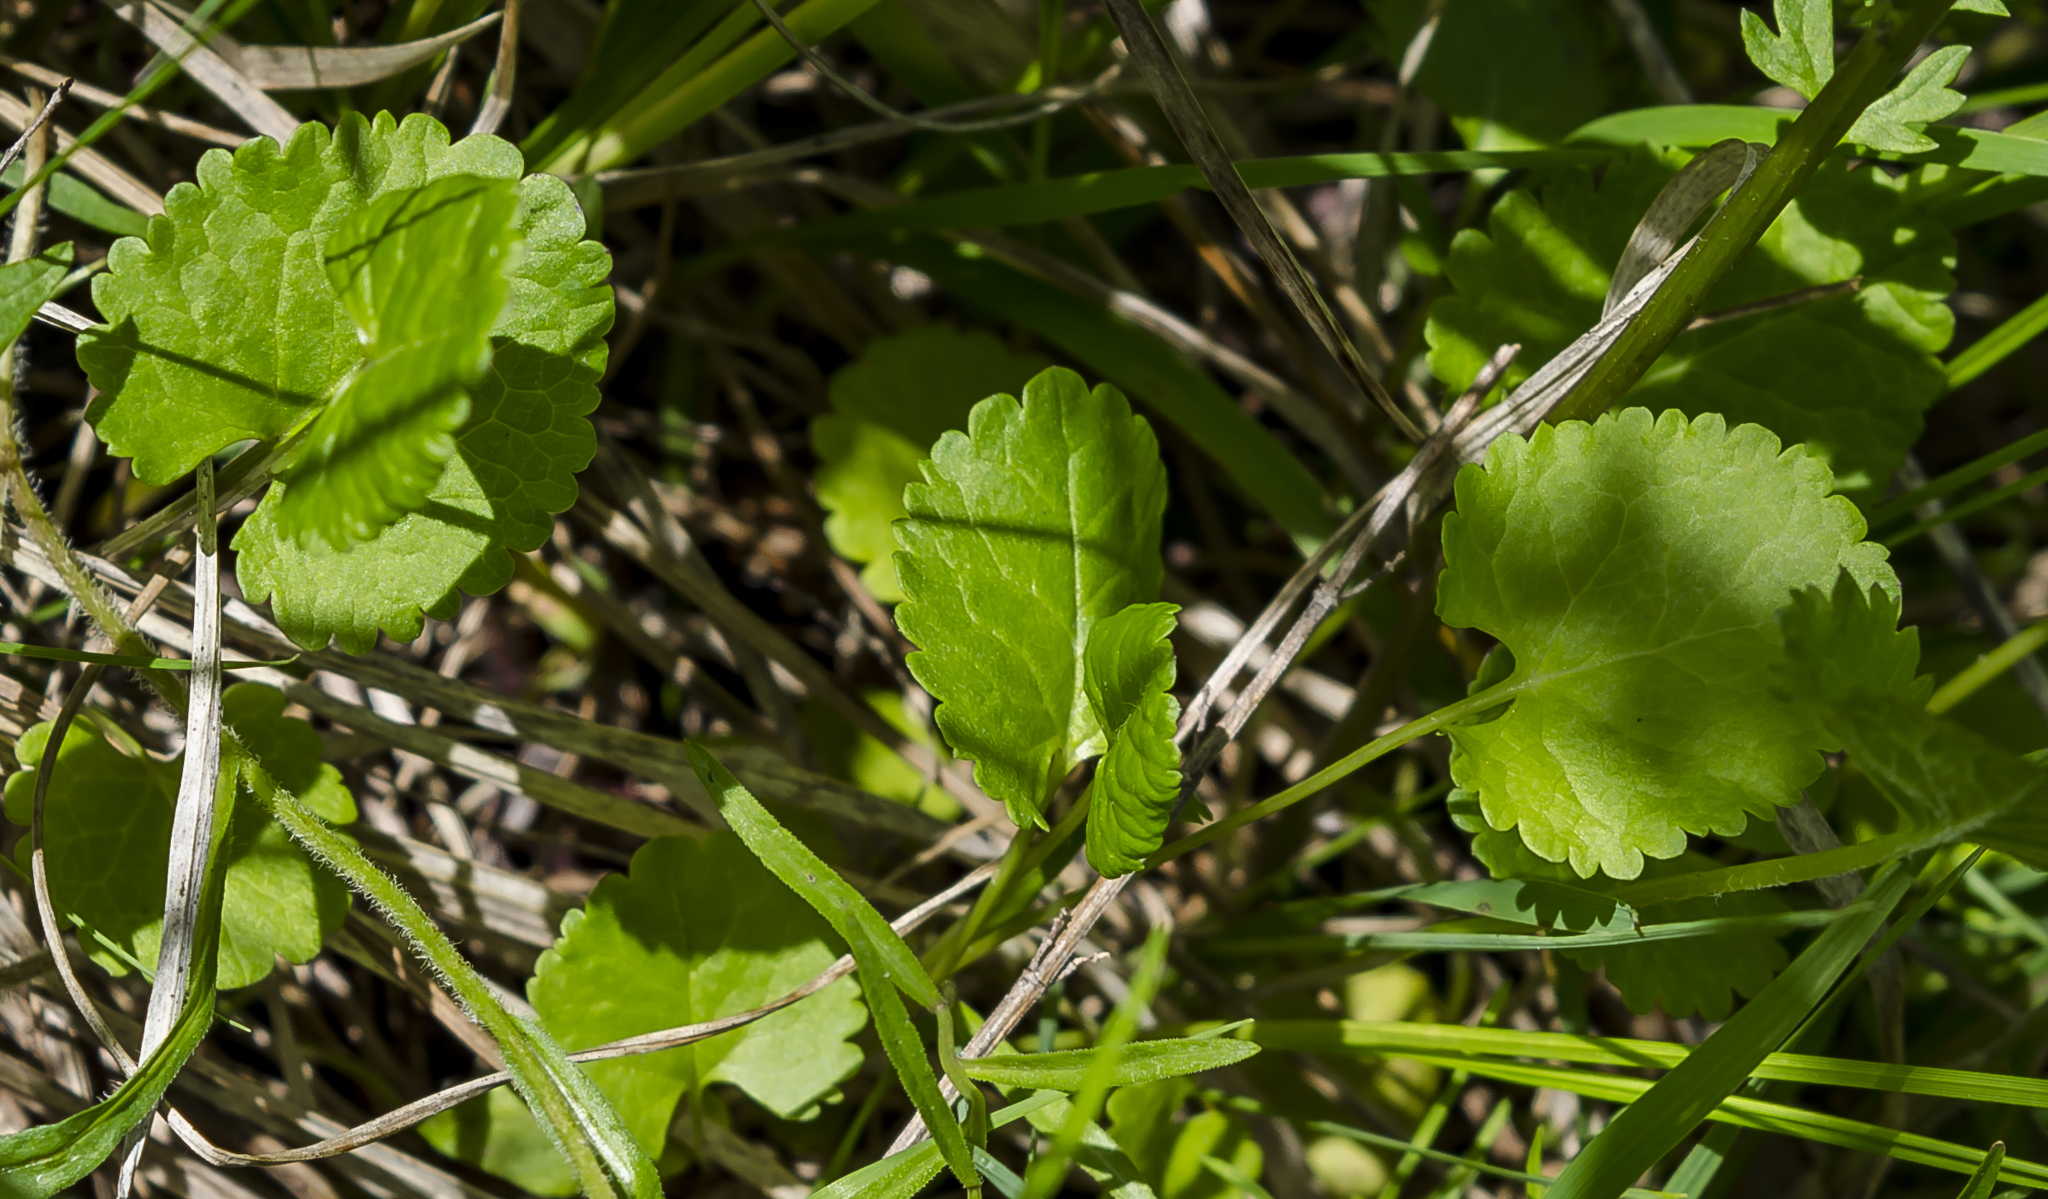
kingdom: Plantae
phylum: Tracheophyta
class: Magnoliopsida
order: Asterales
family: Asteraceae
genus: Packera
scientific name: Packera aurea
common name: Golden groundsel
